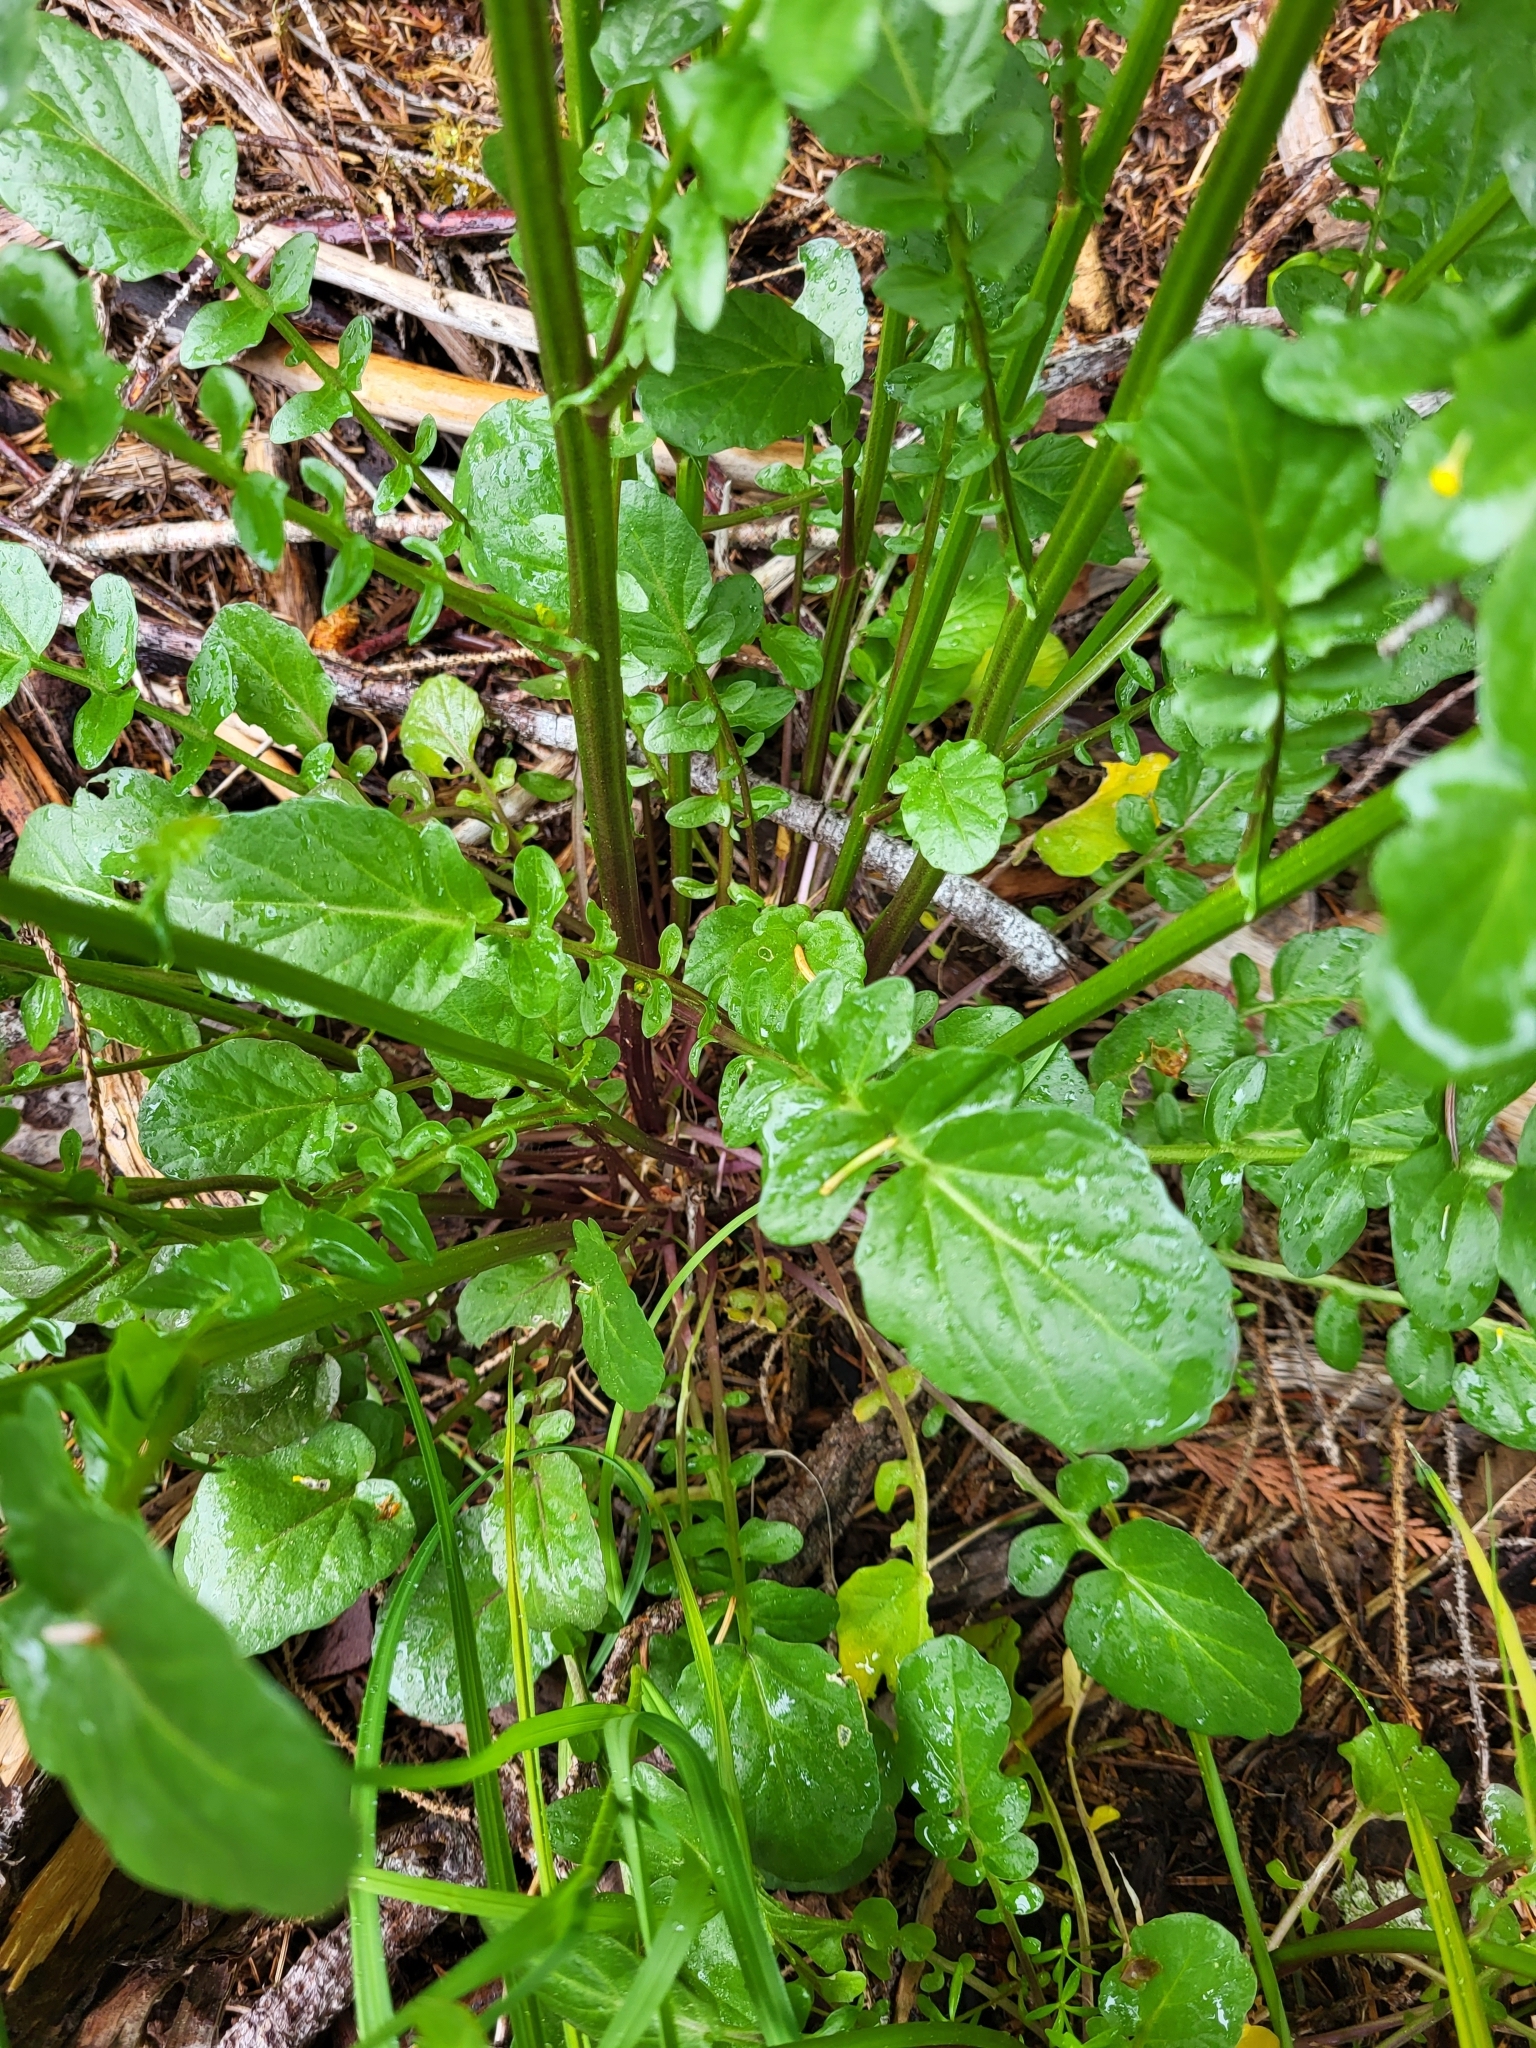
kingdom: Plantae
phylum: Tracheophyta
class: Magnoliopsida
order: Brassicales
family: Brassicaceae
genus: Barbarea
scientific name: Barbarea orthoceras
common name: American wintercress
